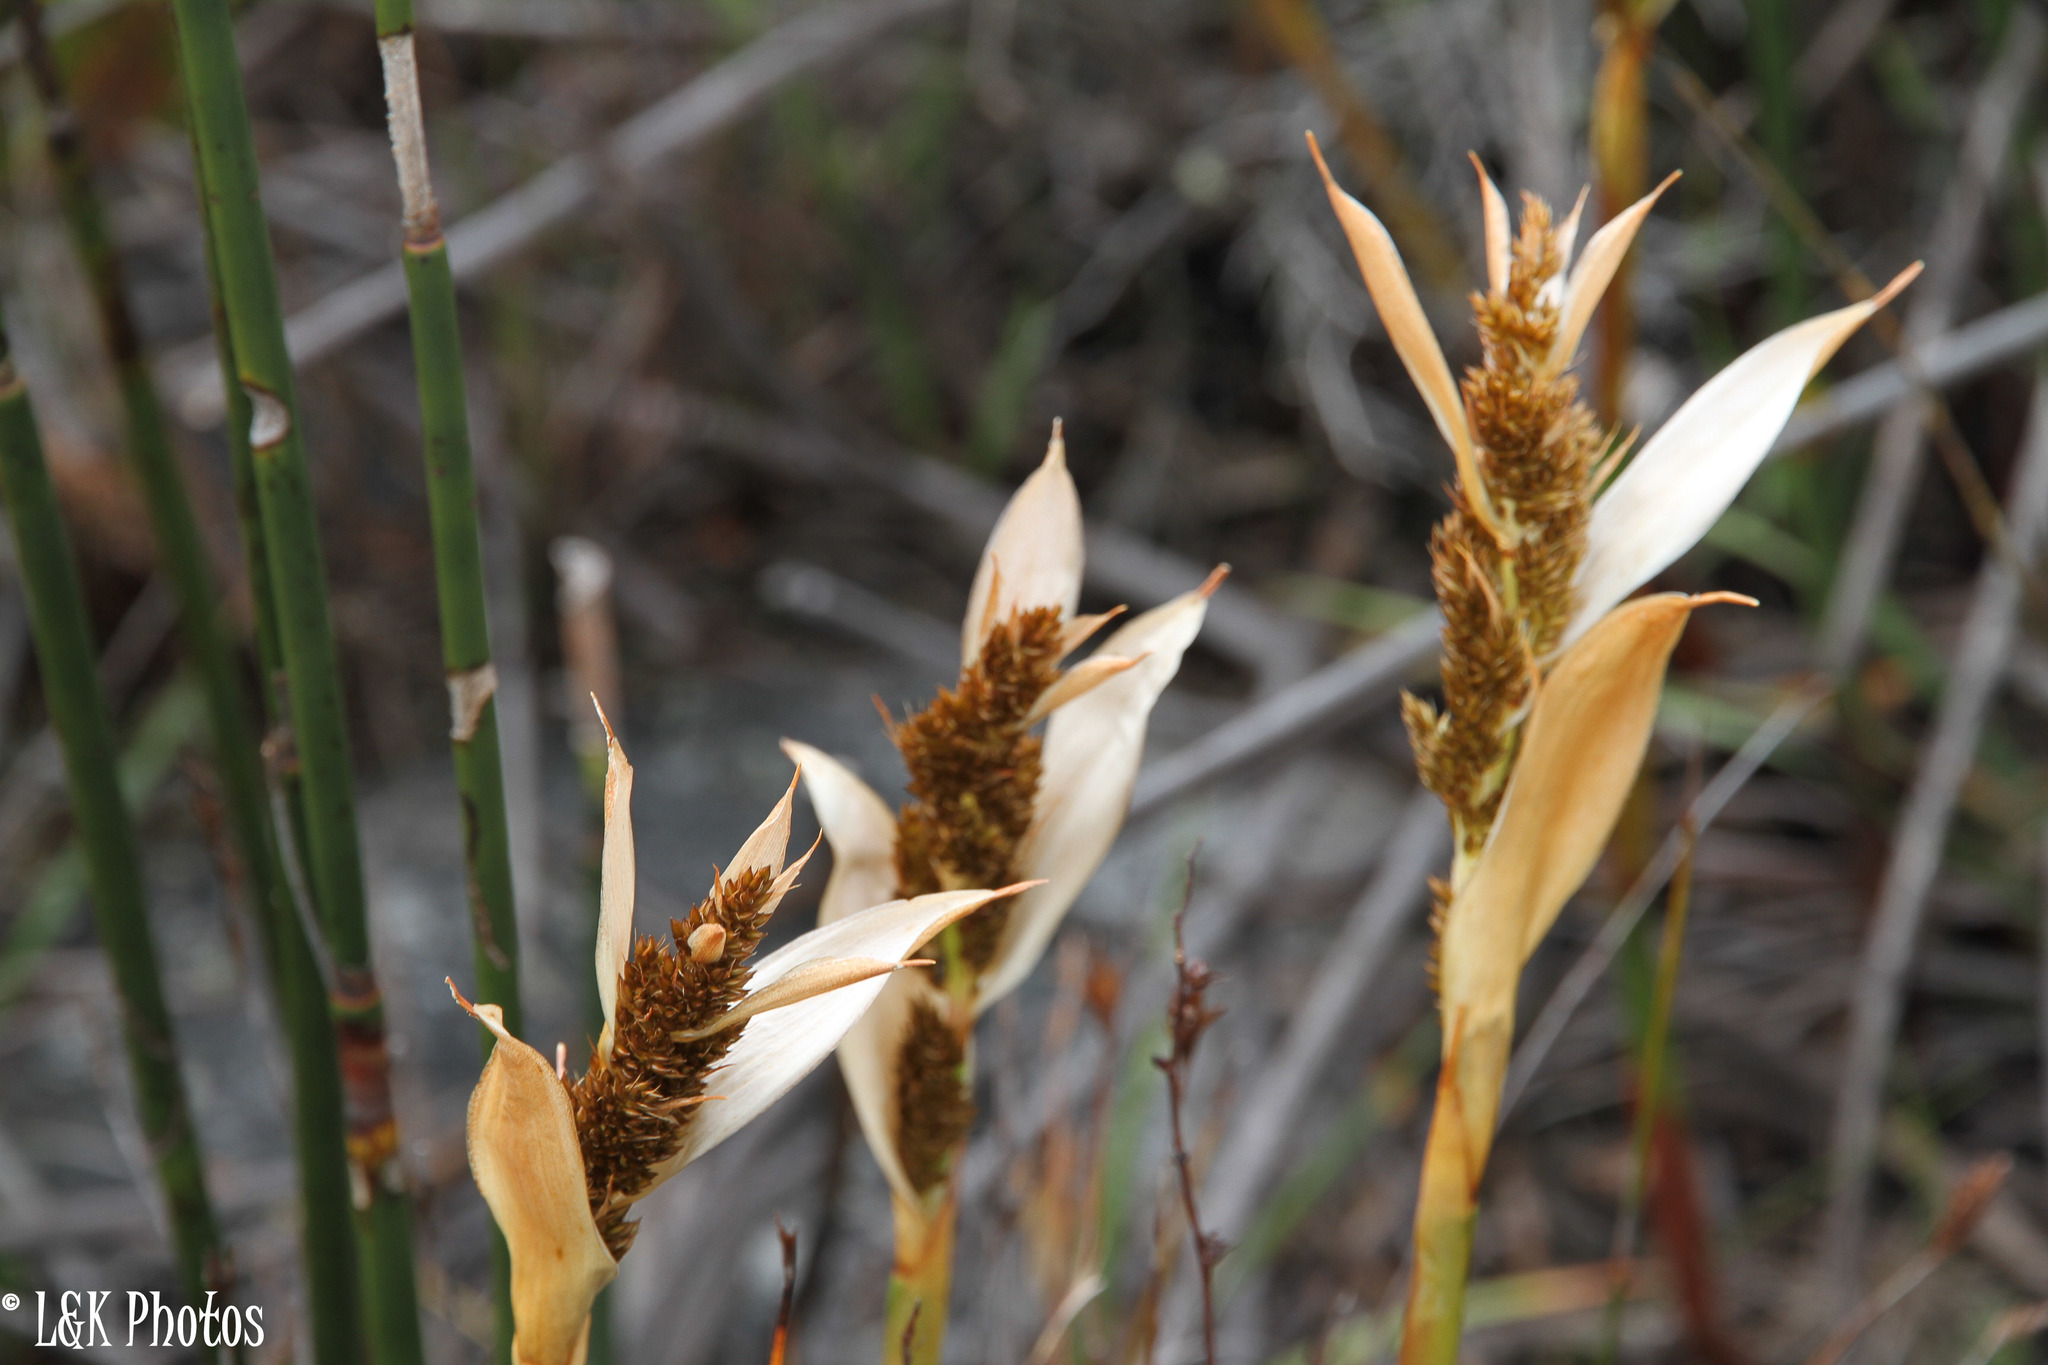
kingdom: Plantae
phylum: Tracheophyta
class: Liliopsida
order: Poales
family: Restionaceae
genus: Elegia
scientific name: Elegia mucronata
